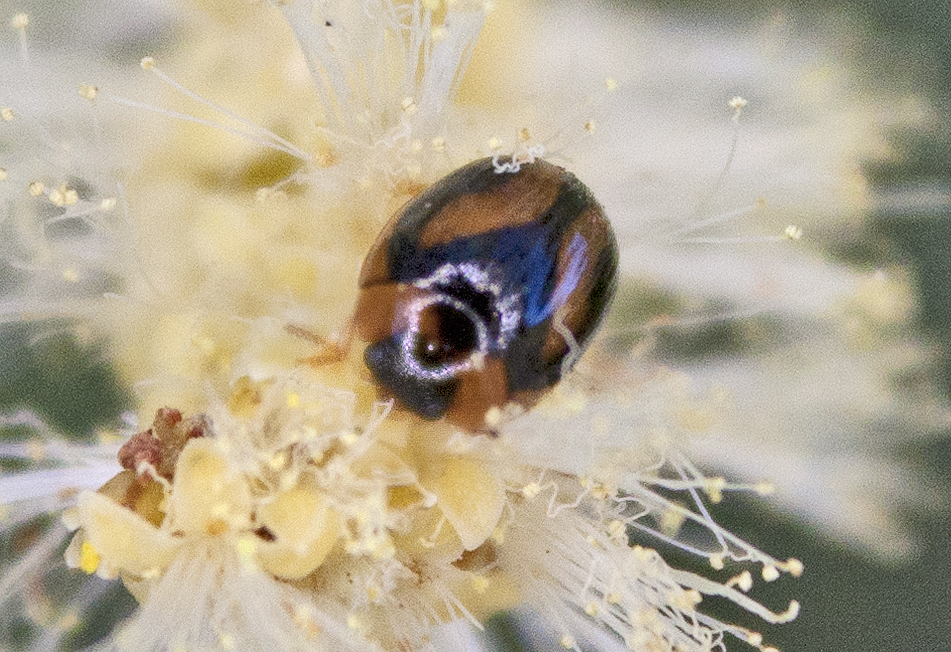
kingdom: Animalia
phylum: Arthropoda
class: Insecta
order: Coleoptera
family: Chrysomelidae
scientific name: Chrysomelidae
